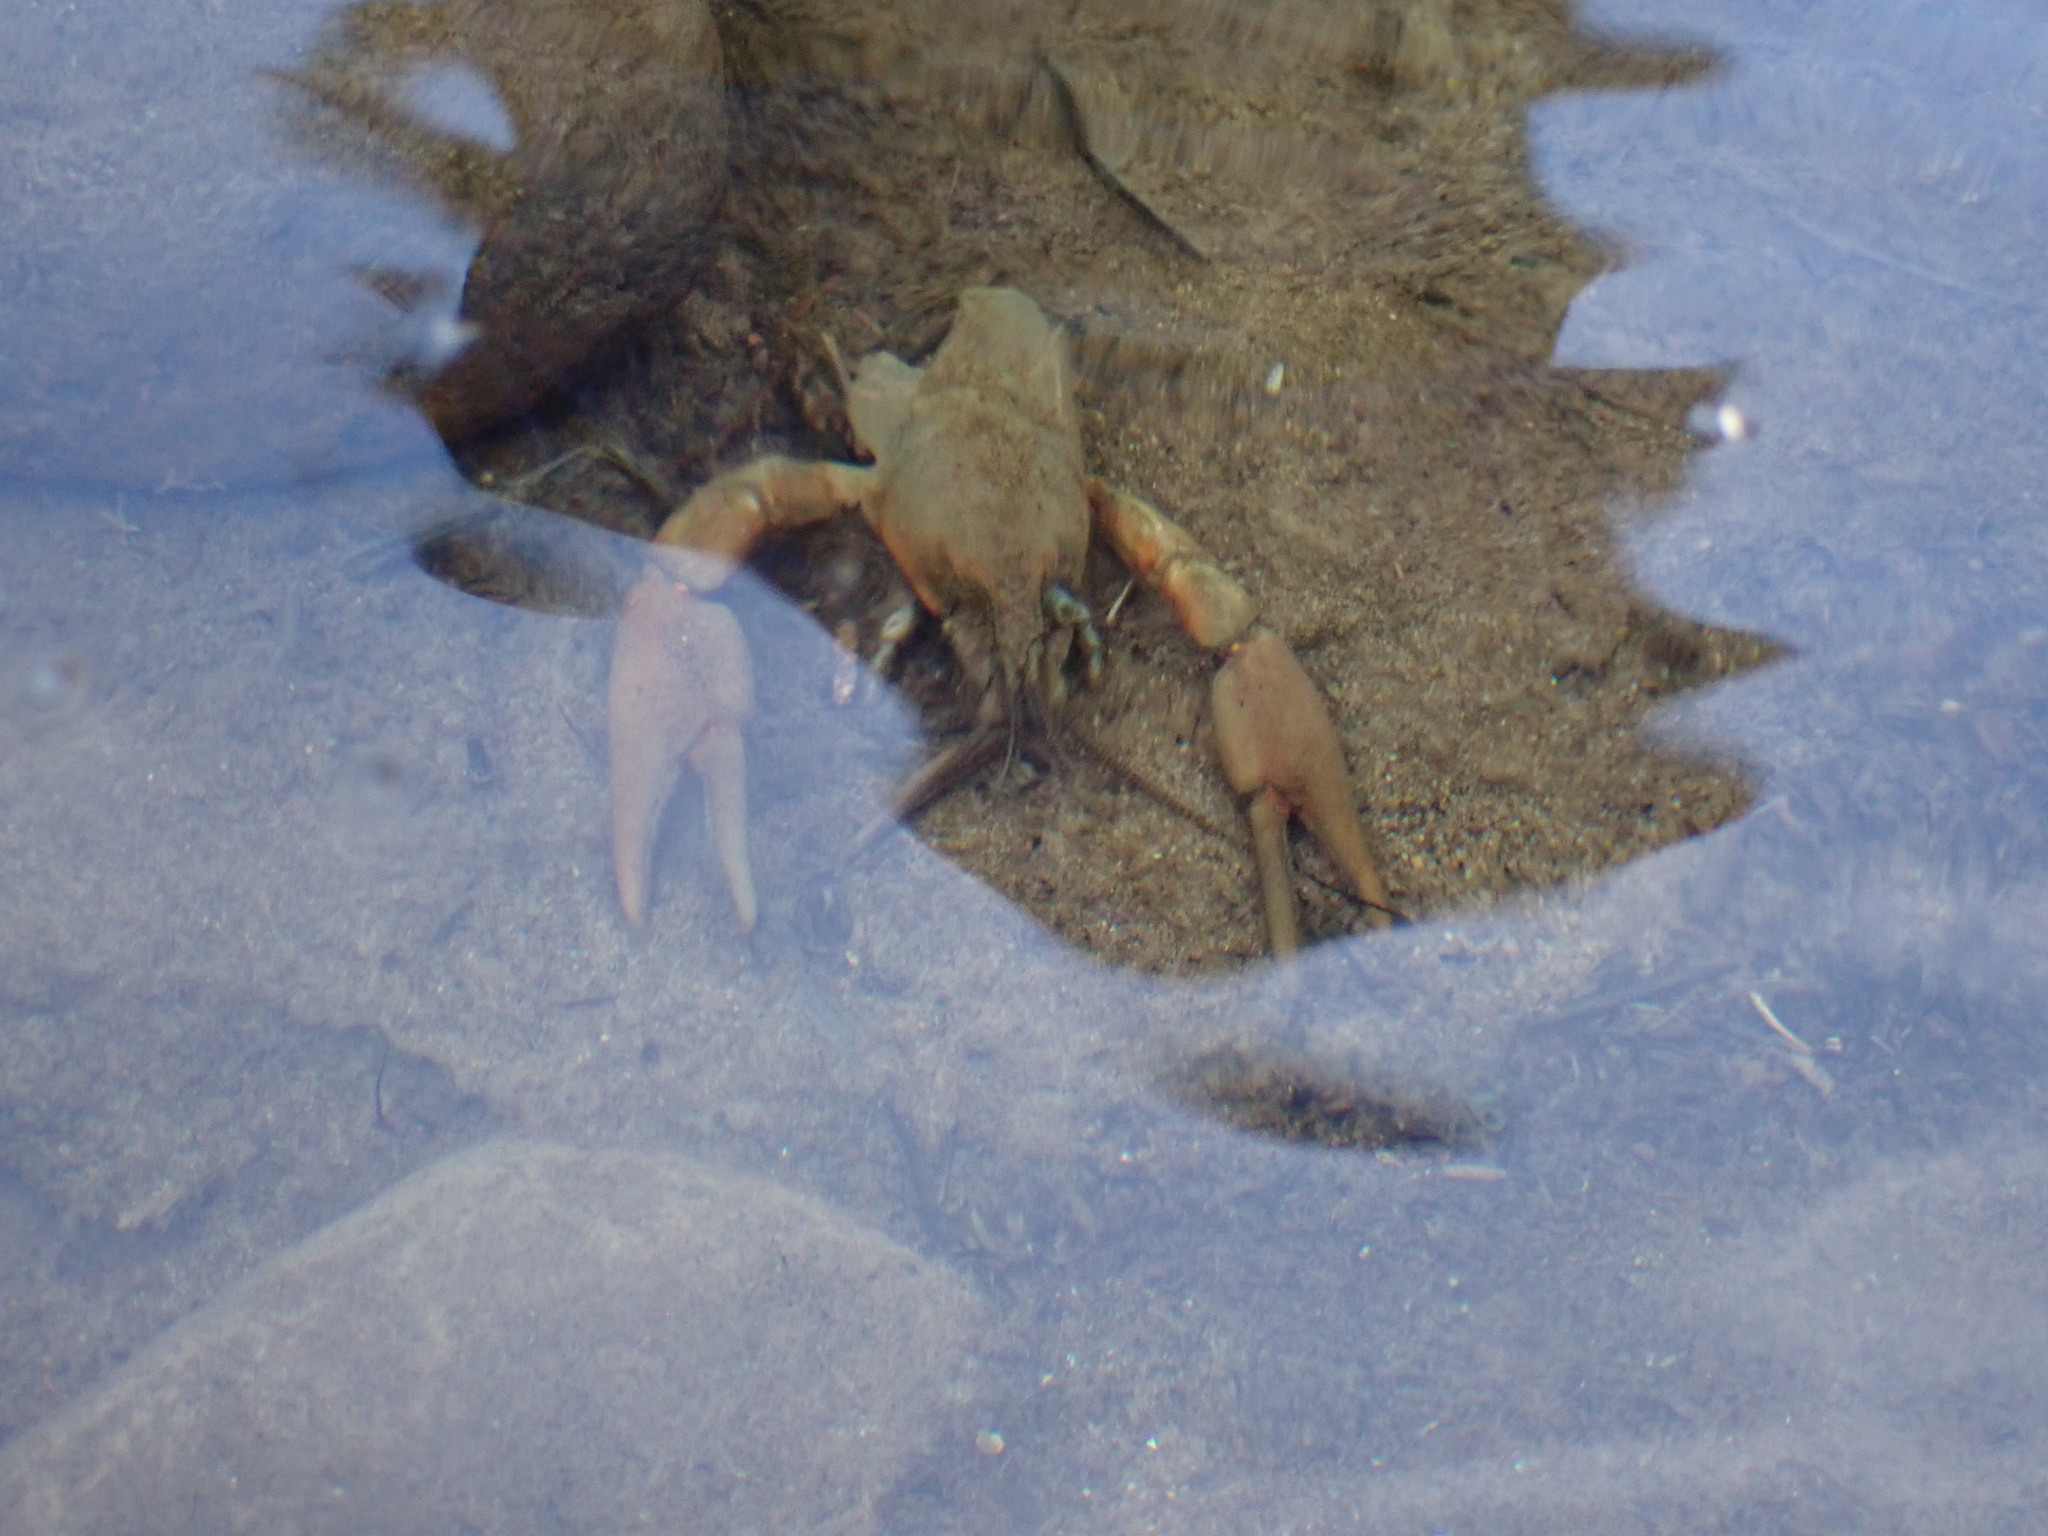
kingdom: Animalia
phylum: Arthropoda
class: Malacostraca
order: Decapoda
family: Astacidae
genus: Pacifastacus
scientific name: Pacifastacus leniusculus
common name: Signal crayfish
